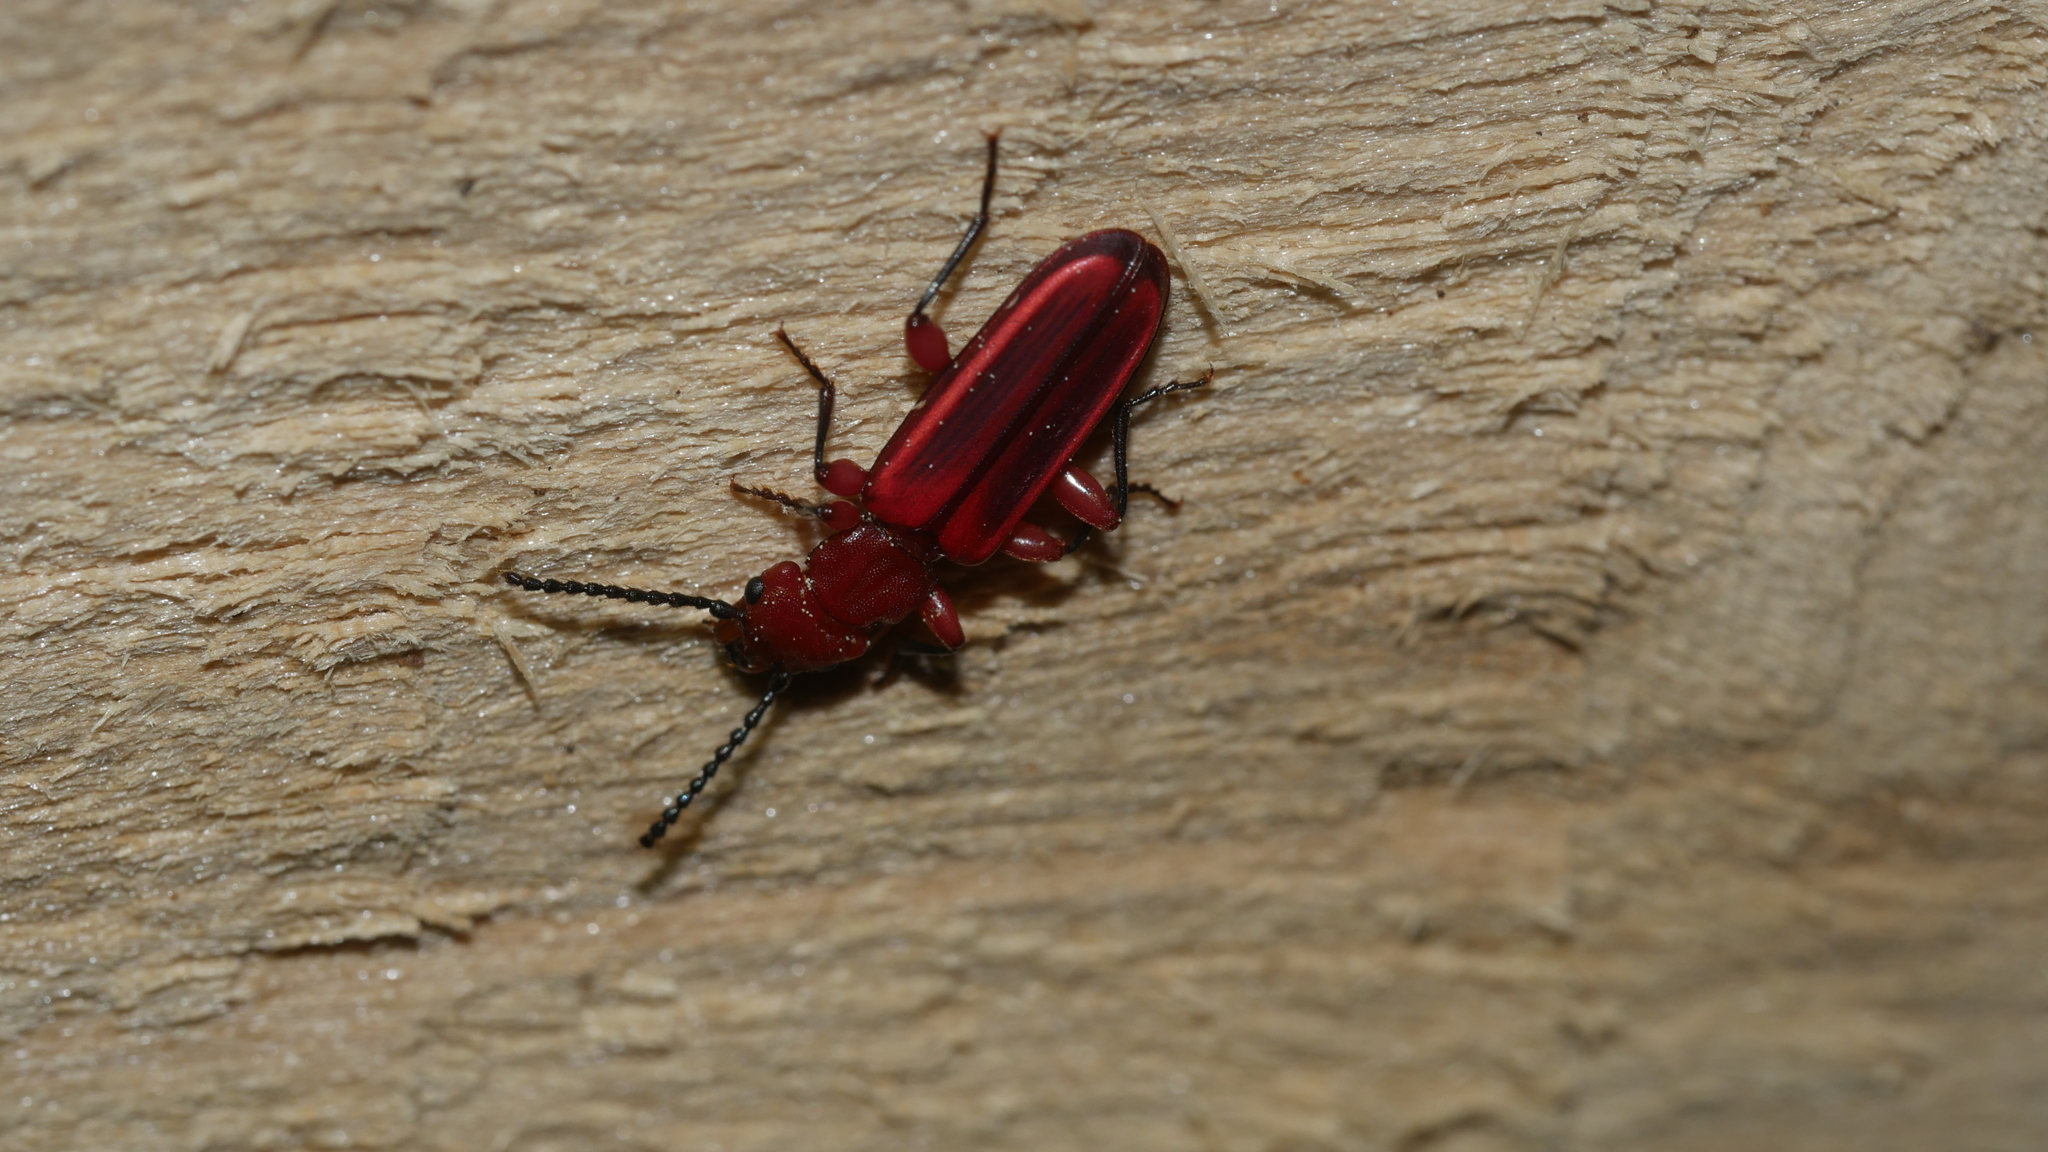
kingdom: Animalia
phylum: Arthropoda
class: Insecta
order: Coleoptera
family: Cucujidae
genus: Cucujus
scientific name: Cucujus clavipes
